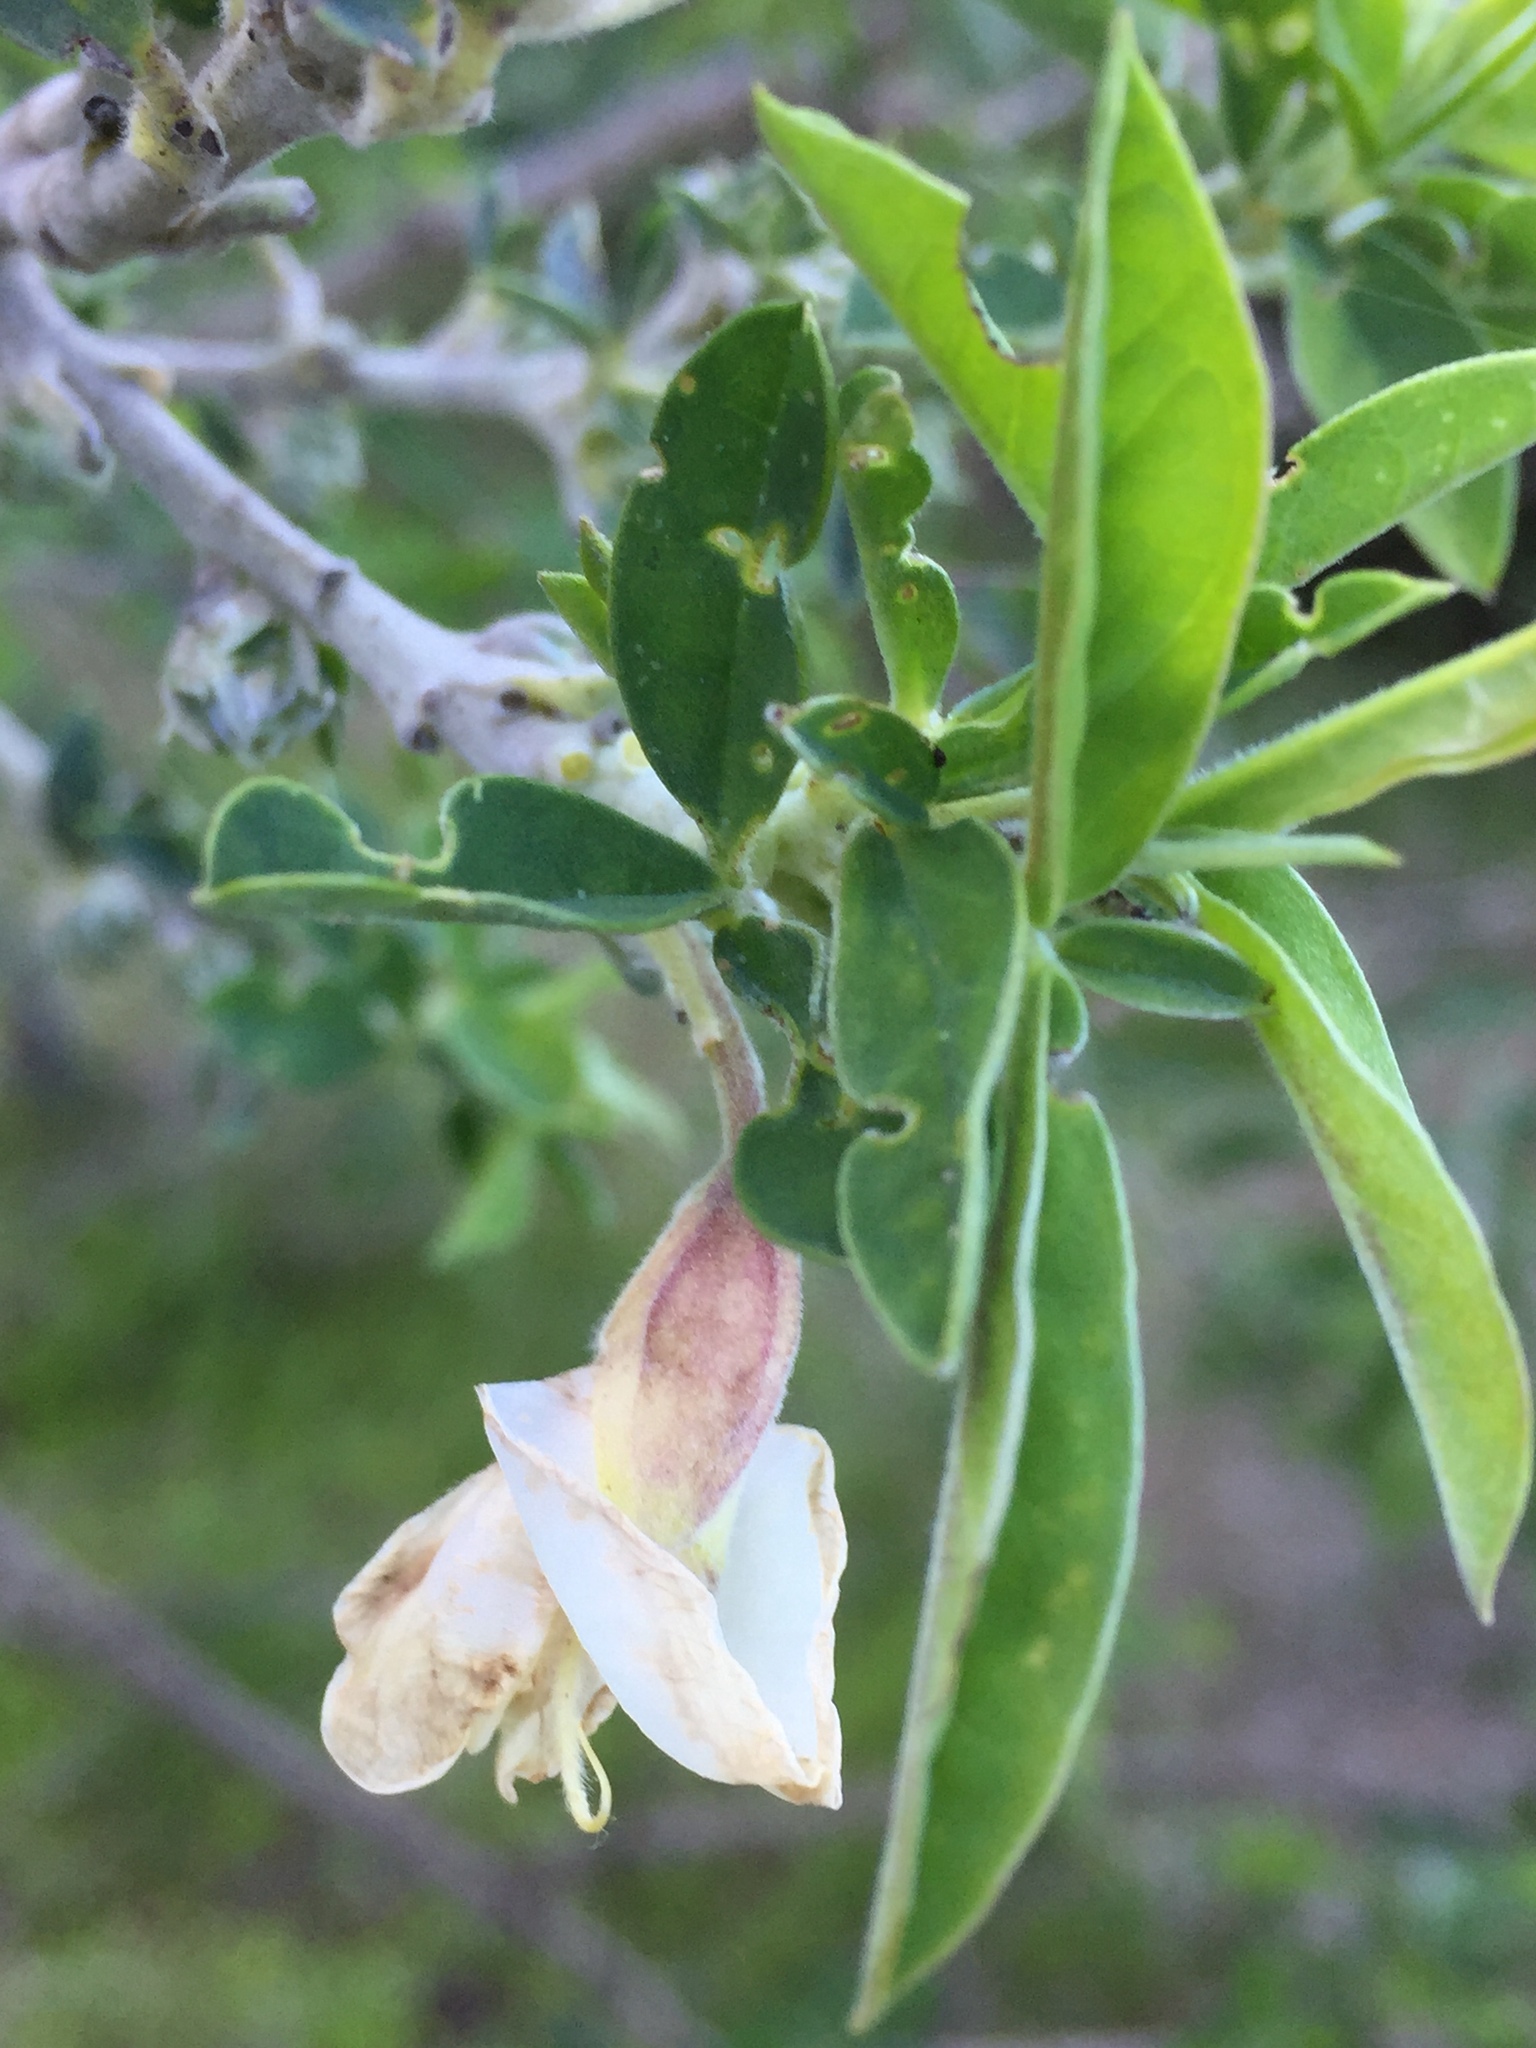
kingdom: Plantae
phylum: Tracheophyta
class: Magnoliopsida
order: Fabales
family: Fabaceae
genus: Chamaecytisus
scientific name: Chamaecytisus prolifer
